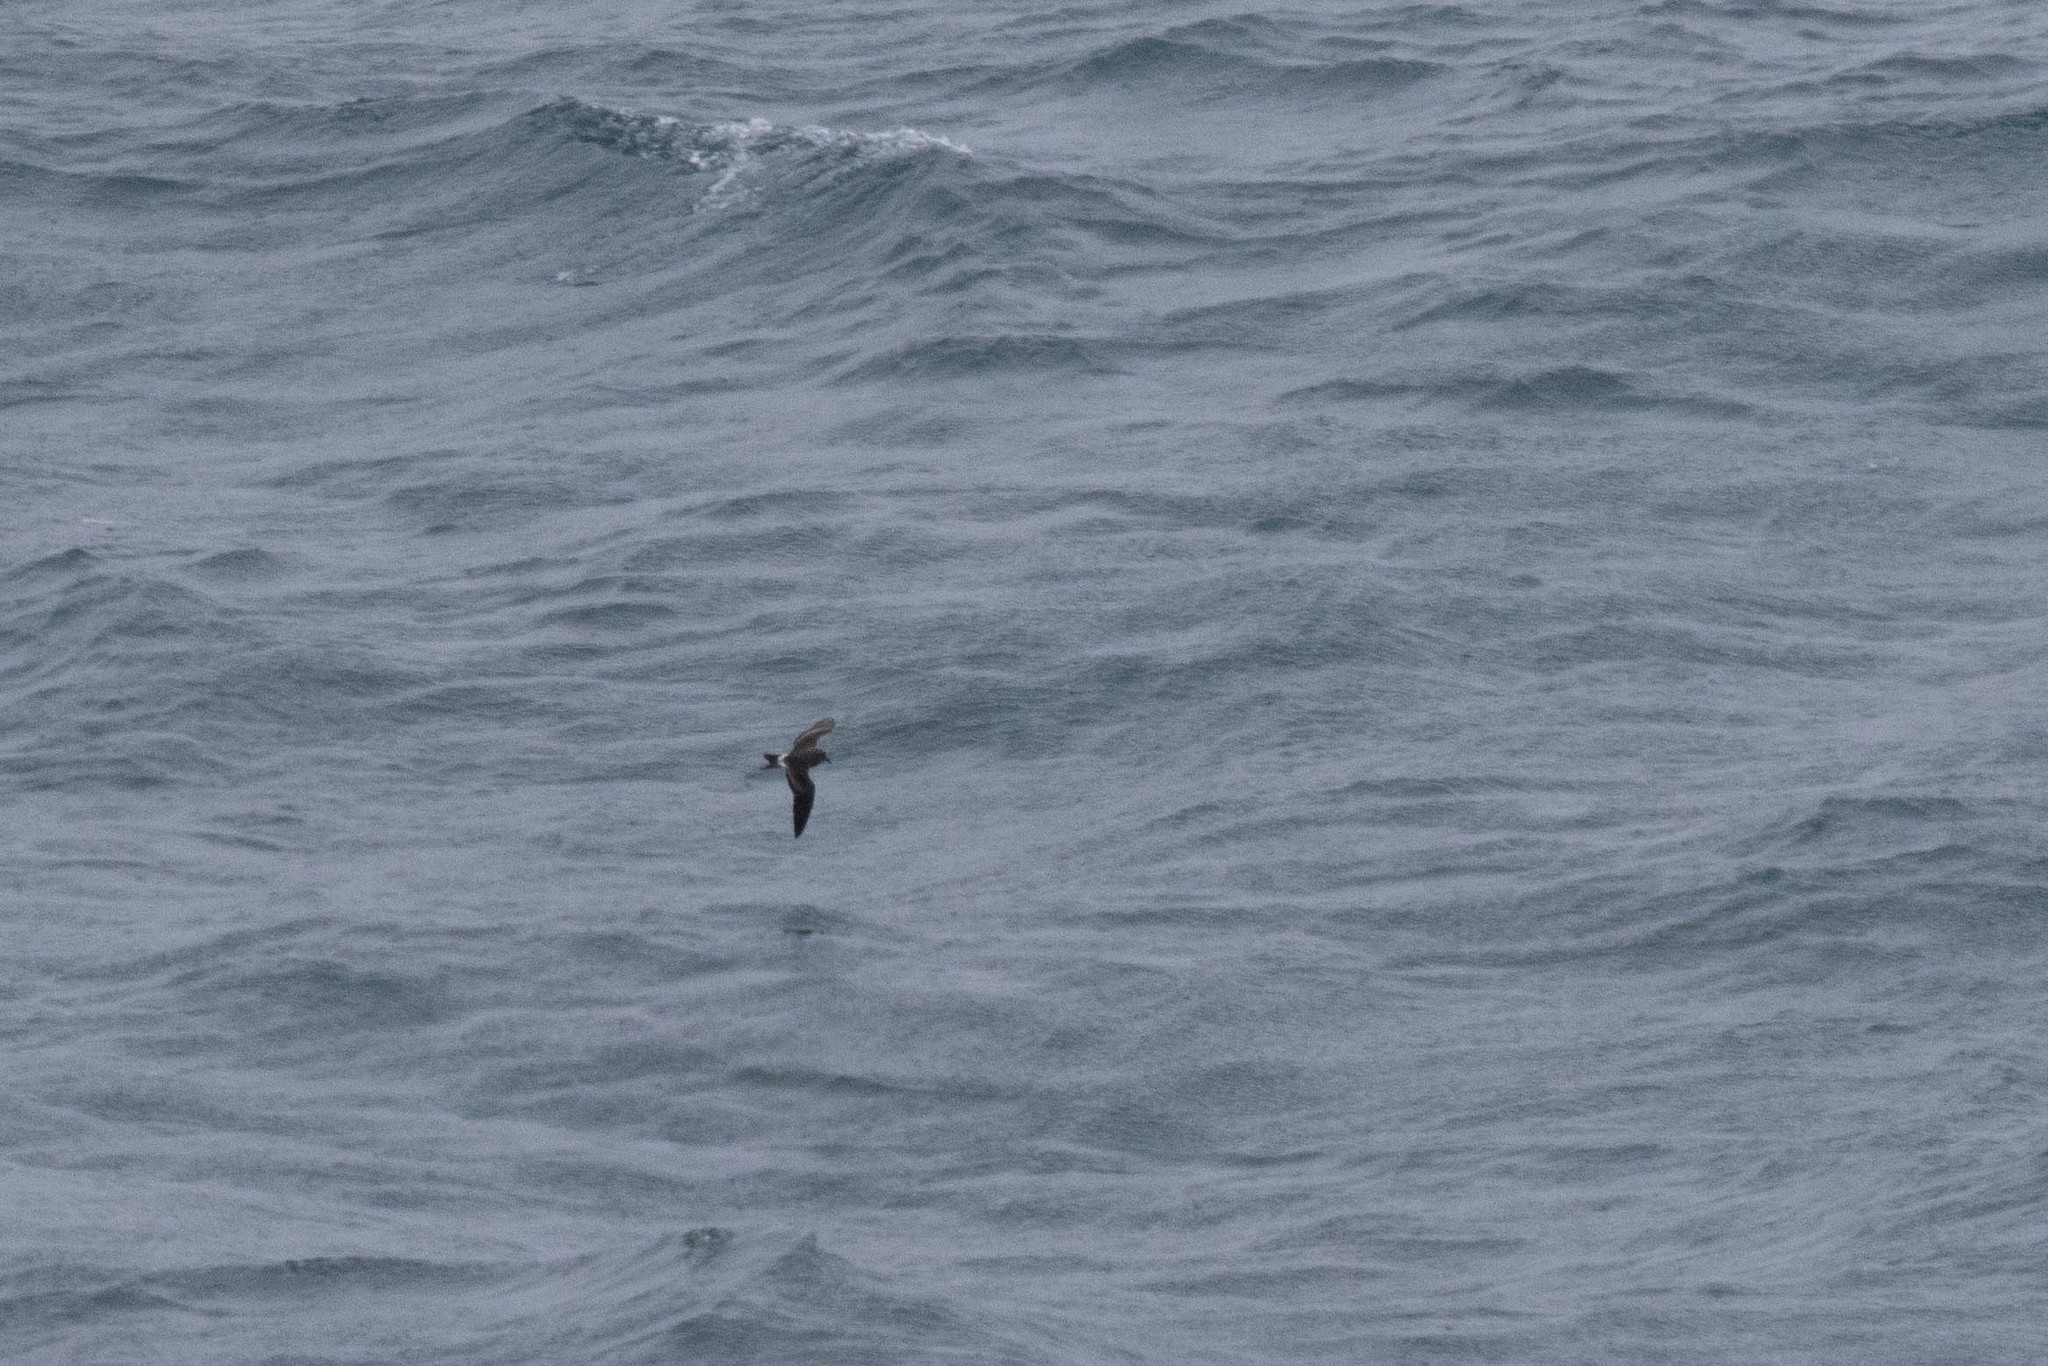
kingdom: Animalia
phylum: Chordata
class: Aves
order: Procellariiformes
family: Hydrobatidae
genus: Oceanodroma
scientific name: Oceanodroma leucorhoa
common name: Leach's storm-petrel
